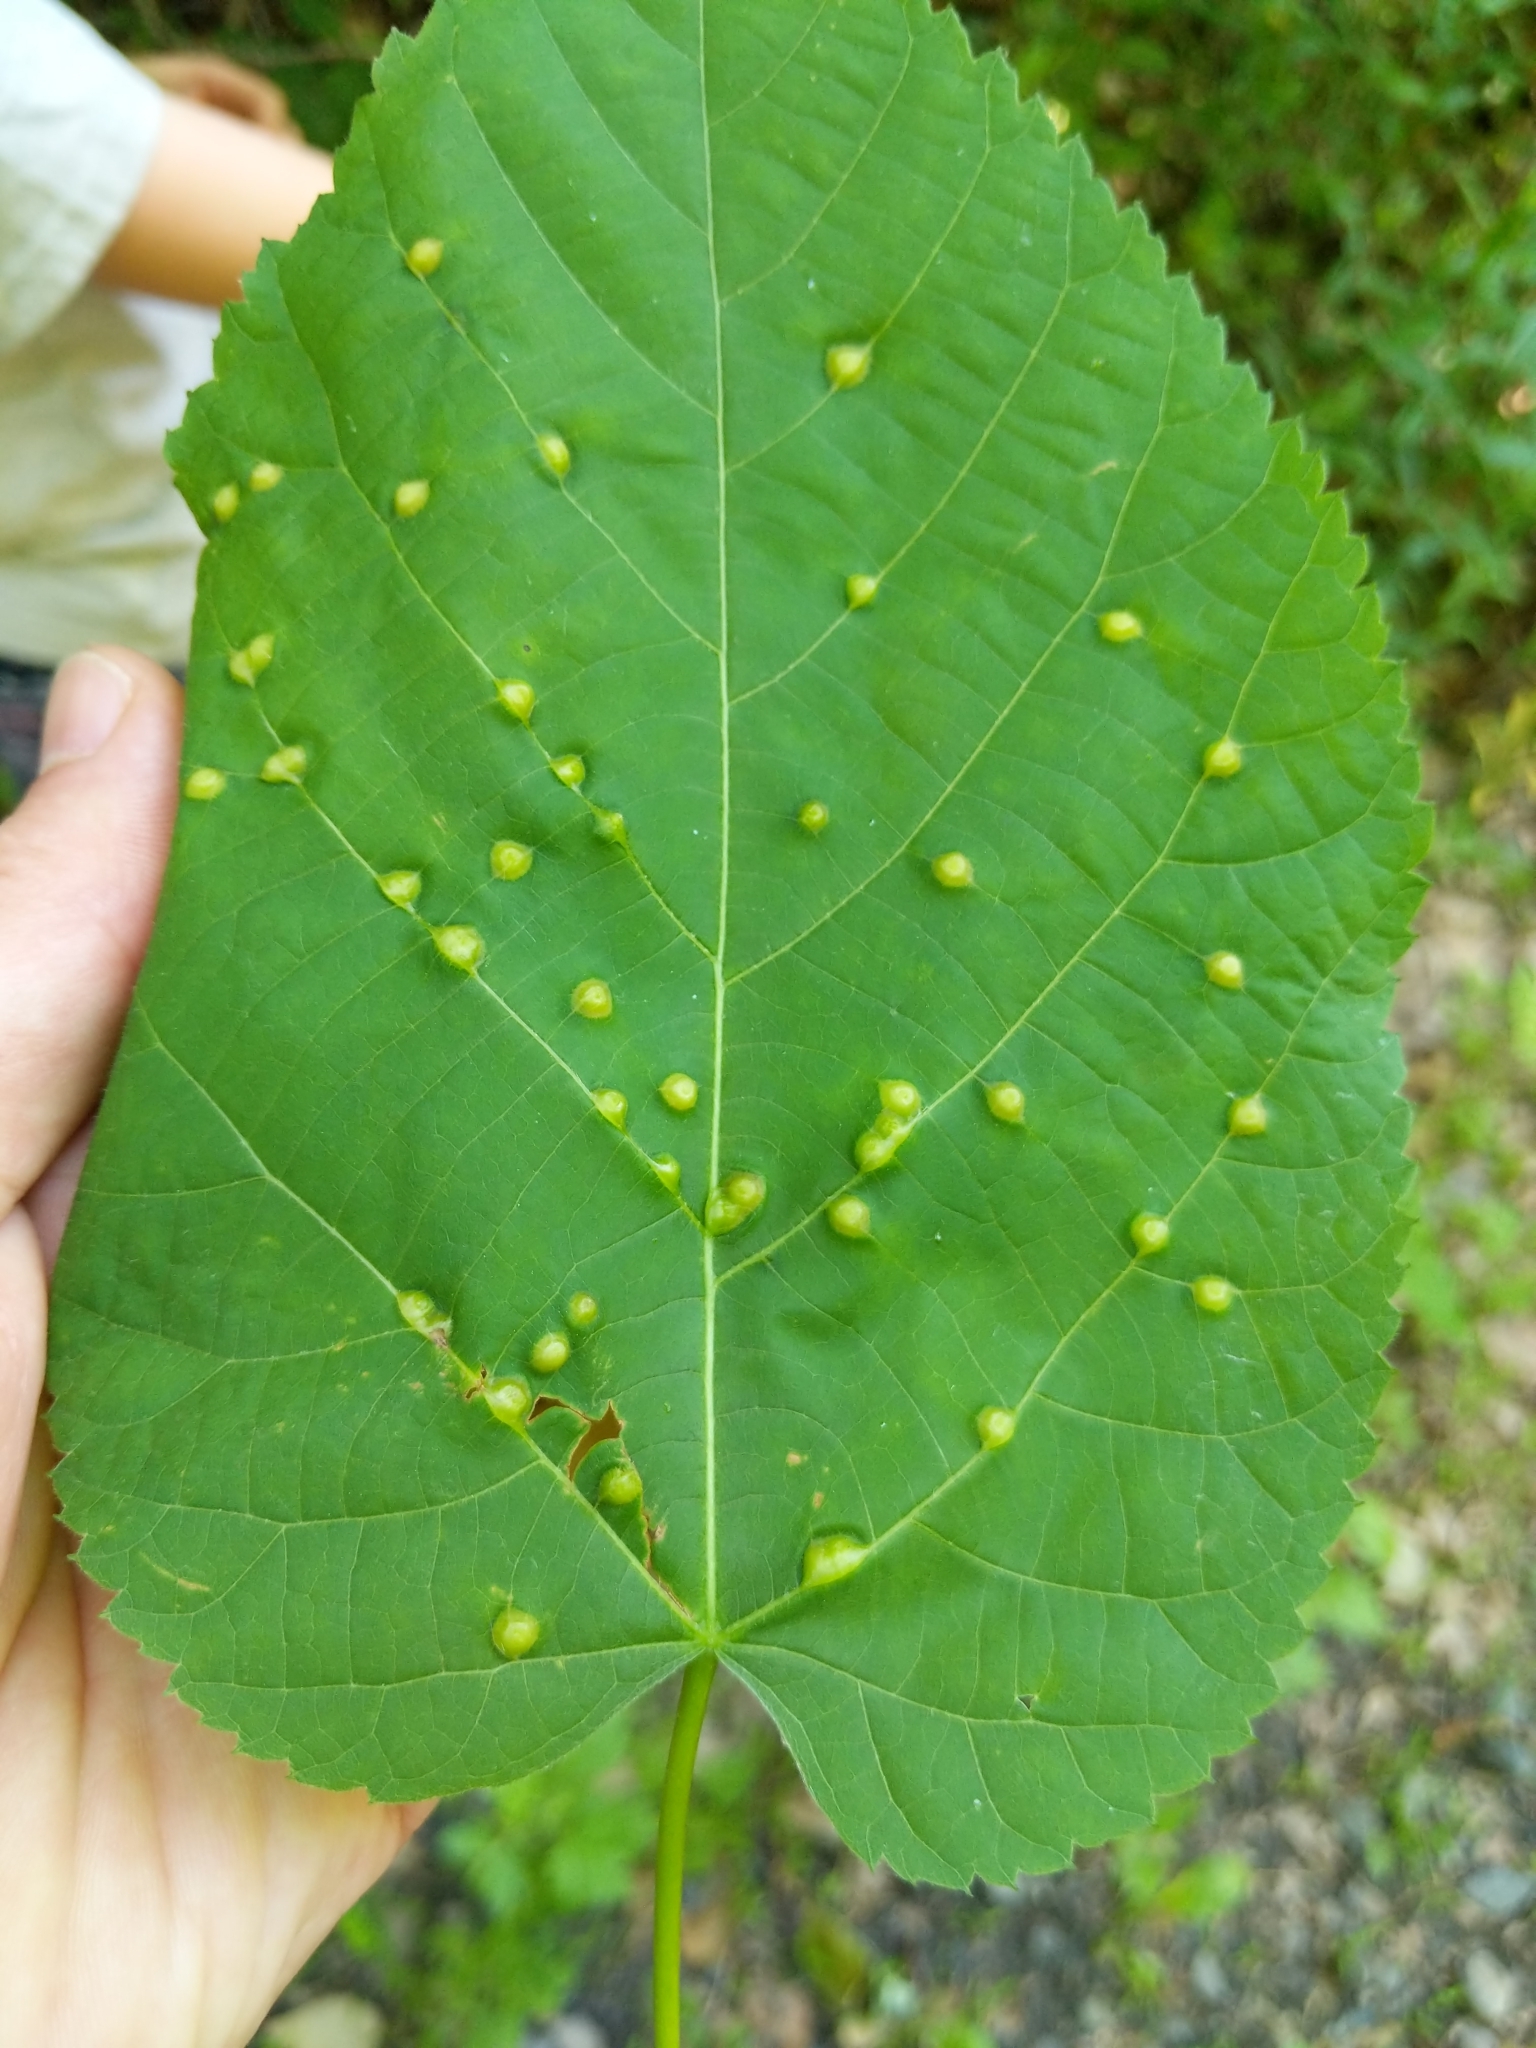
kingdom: Animalia
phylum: Arthropoda
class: Insecta
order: Diptera
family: Cecidomyiidae
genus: Contarinia
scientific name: Contarinia verrucicola
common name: Linden wart gall midge
